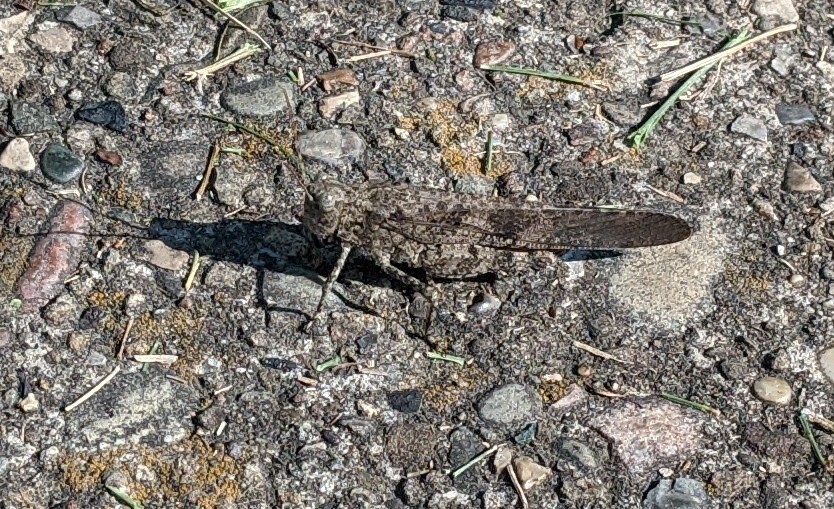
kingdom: Animalia
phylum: Arthropoda
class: Insecta
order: Orthoptera
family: Acrididae
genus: Dissosteira
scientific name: Dissosteira carolina
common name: Carolina grasshopper
